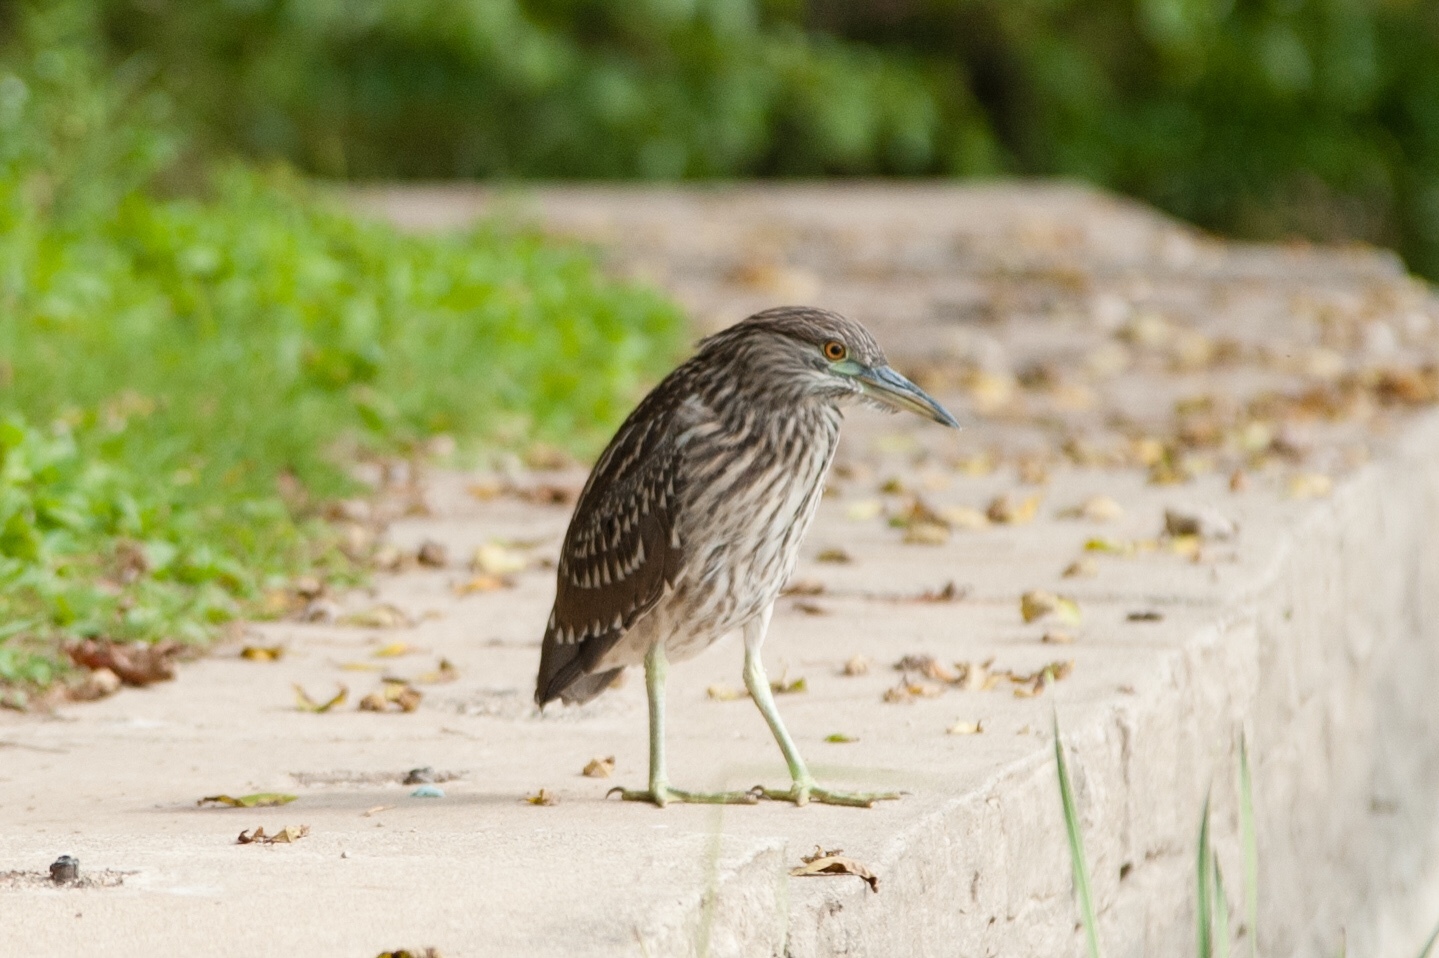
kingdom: Animalia
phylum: Chordata
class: Aves
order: Pelecaniformes
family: Ardeidae
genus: Nycticorax
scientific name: Nycticorax nycticorax
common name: Black-crowned night heron
